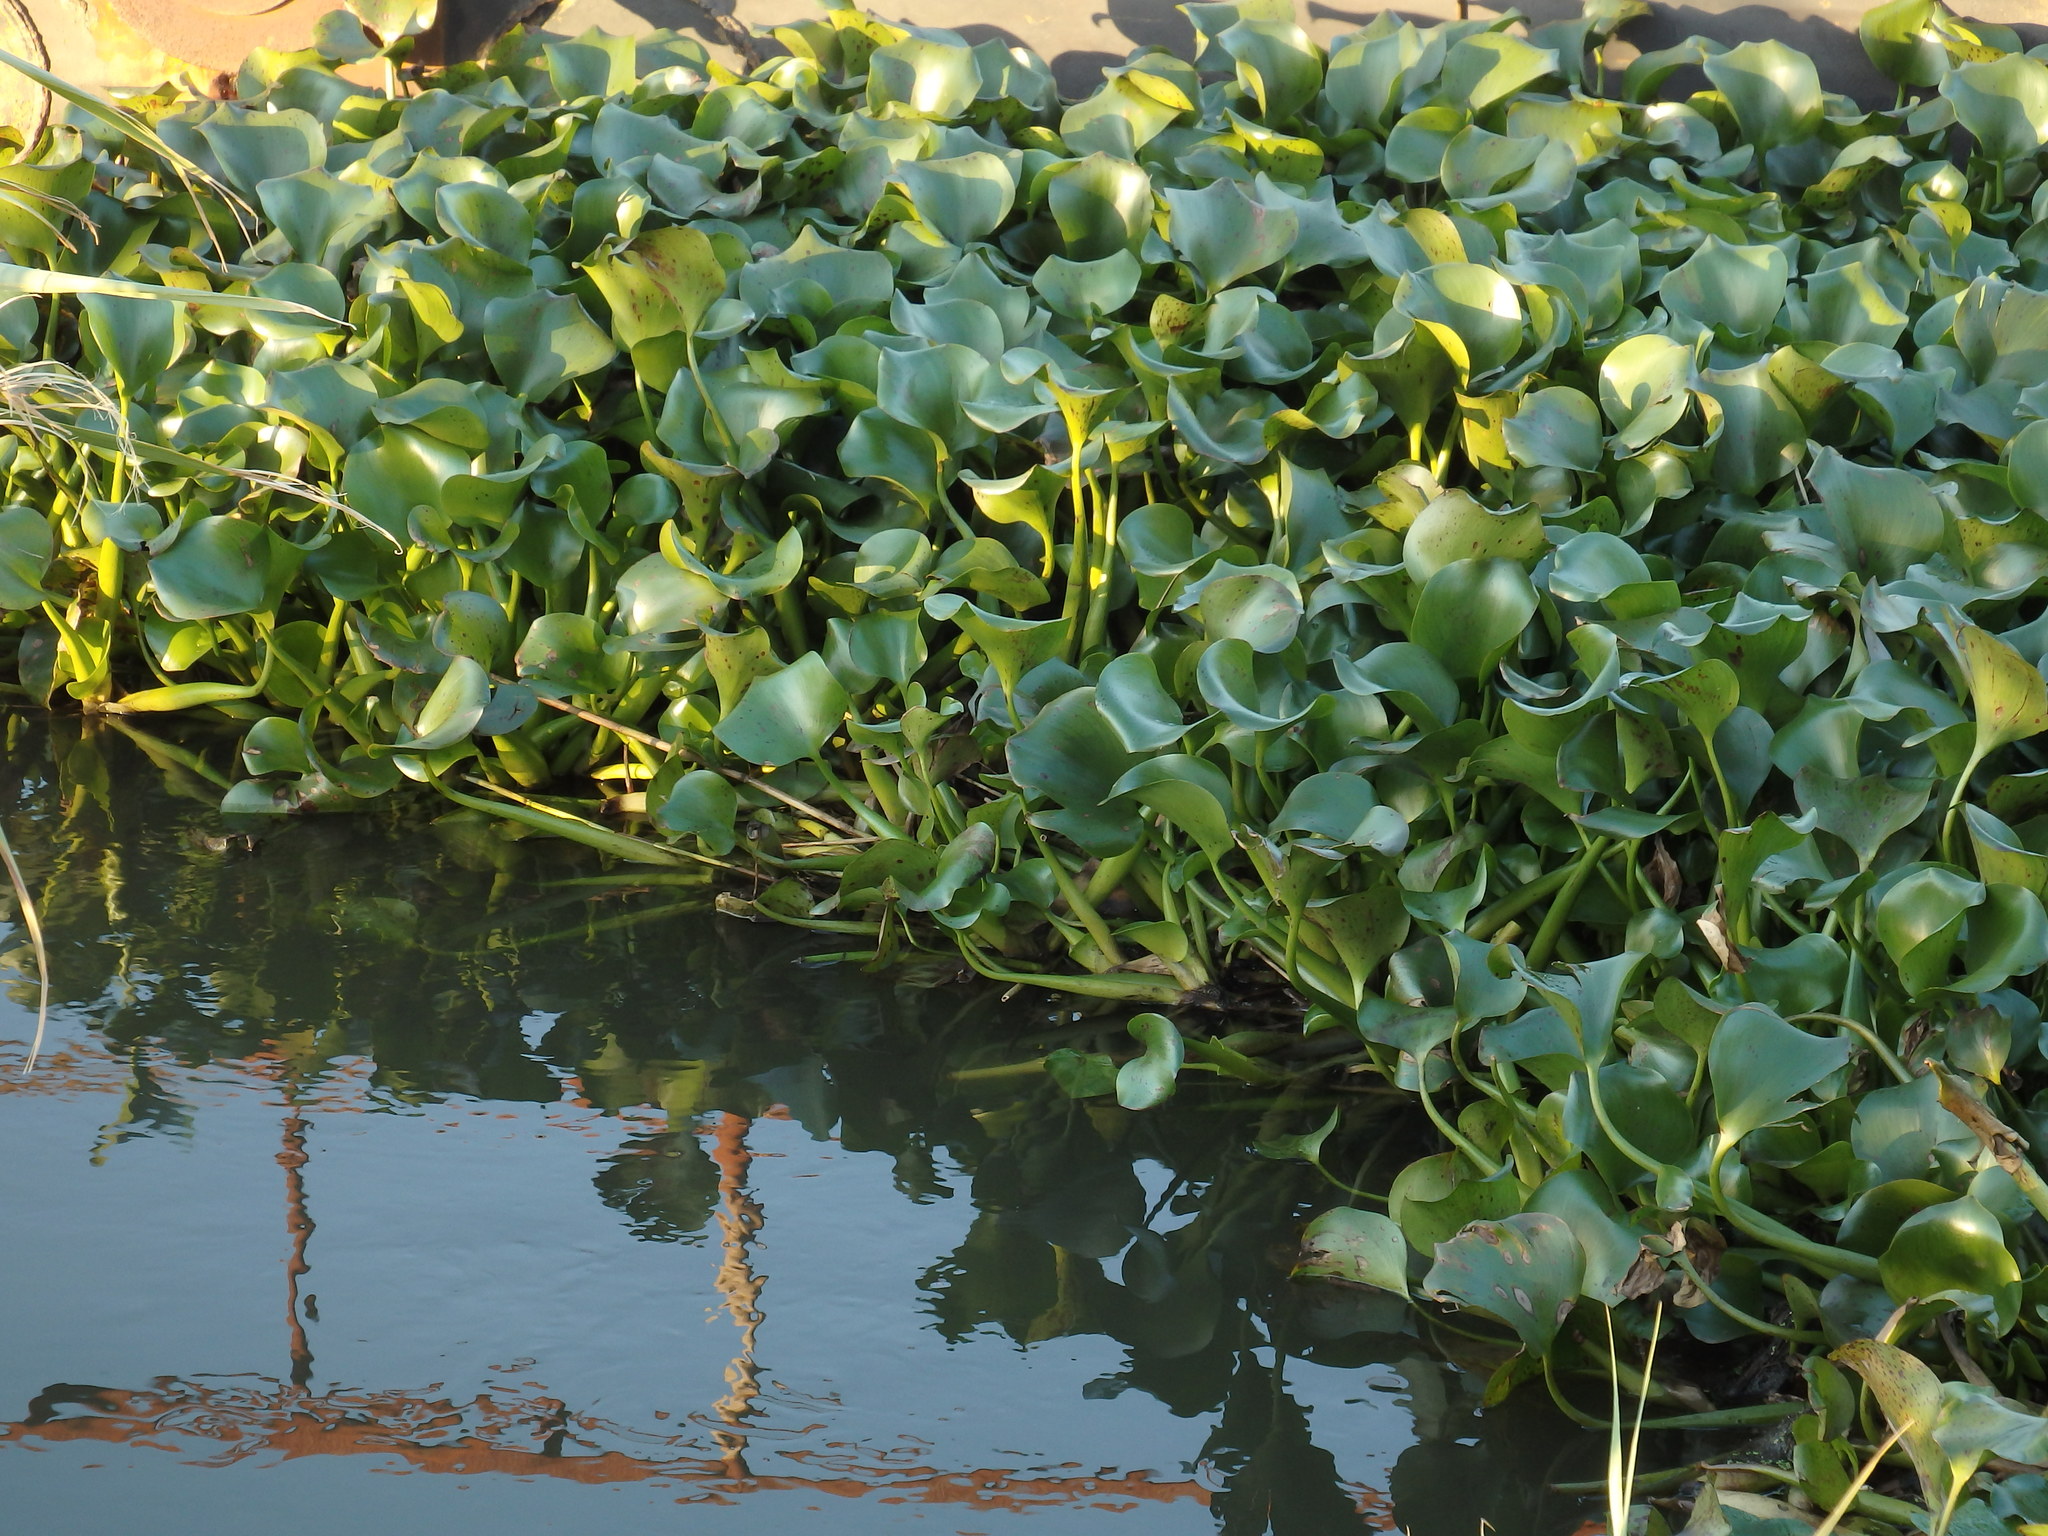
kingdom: Plantae
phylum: Tracheophyta
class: Liliopsida
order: Commelinales
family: Pontederiaceae
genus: Pontederia
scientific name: Pontederia crassipes
